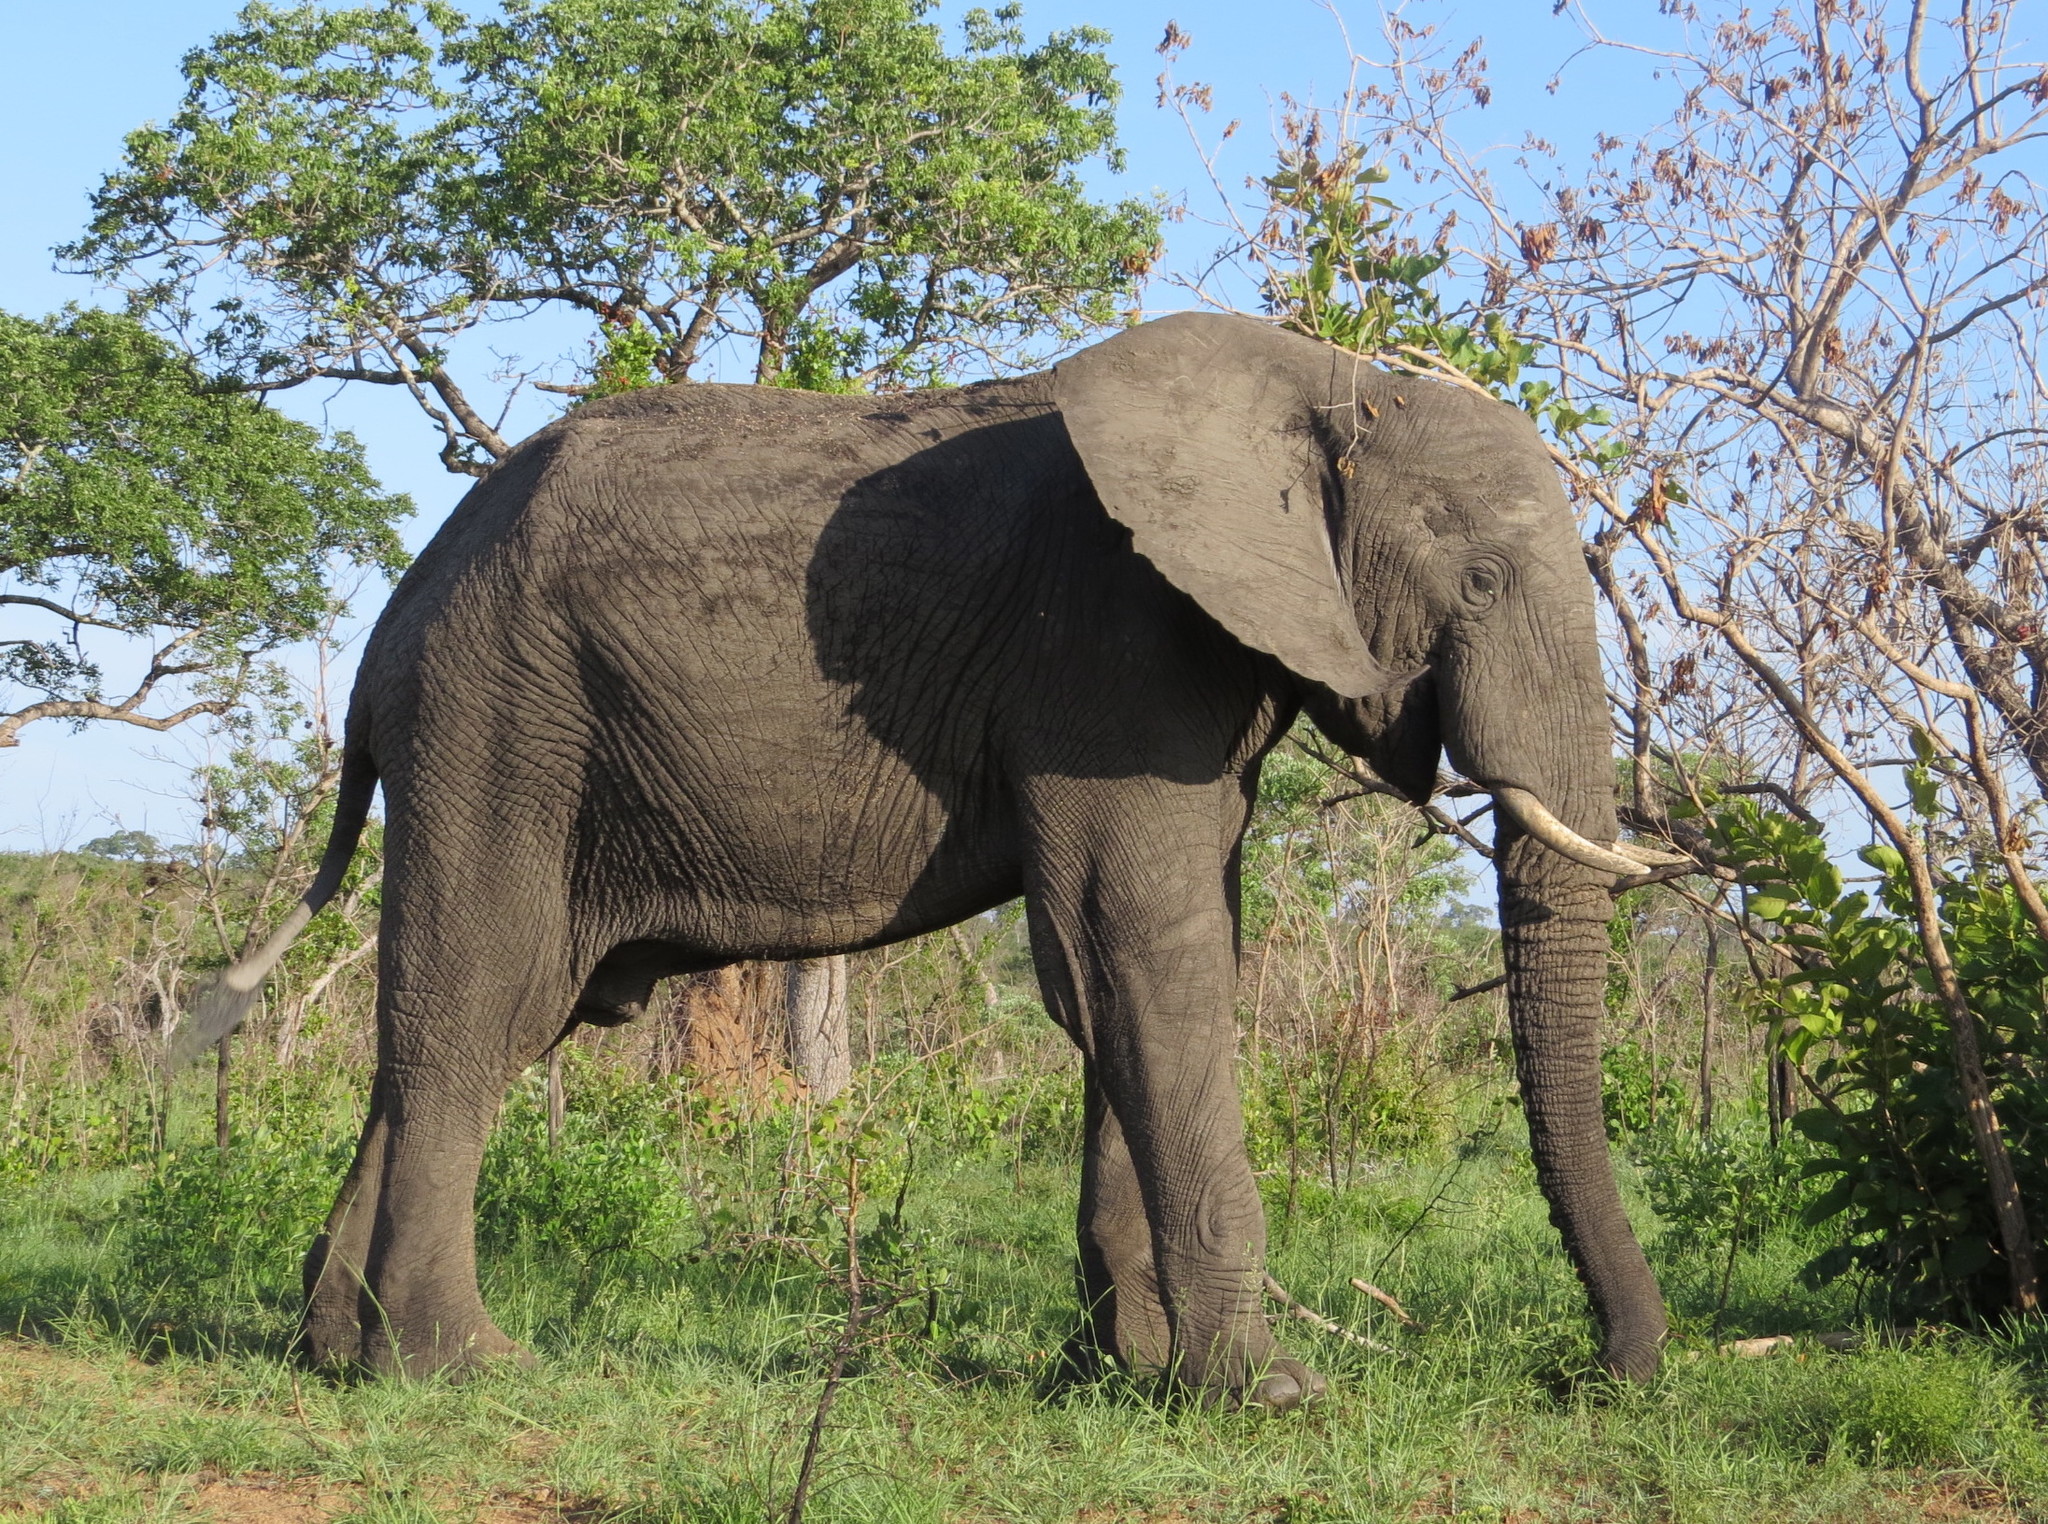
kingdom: Animalia
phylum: Chordata
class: Mammalia
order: Proboscidea
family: Elephantidae
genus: Loxodonta
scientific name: Loxodonta africana
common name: African elephant
